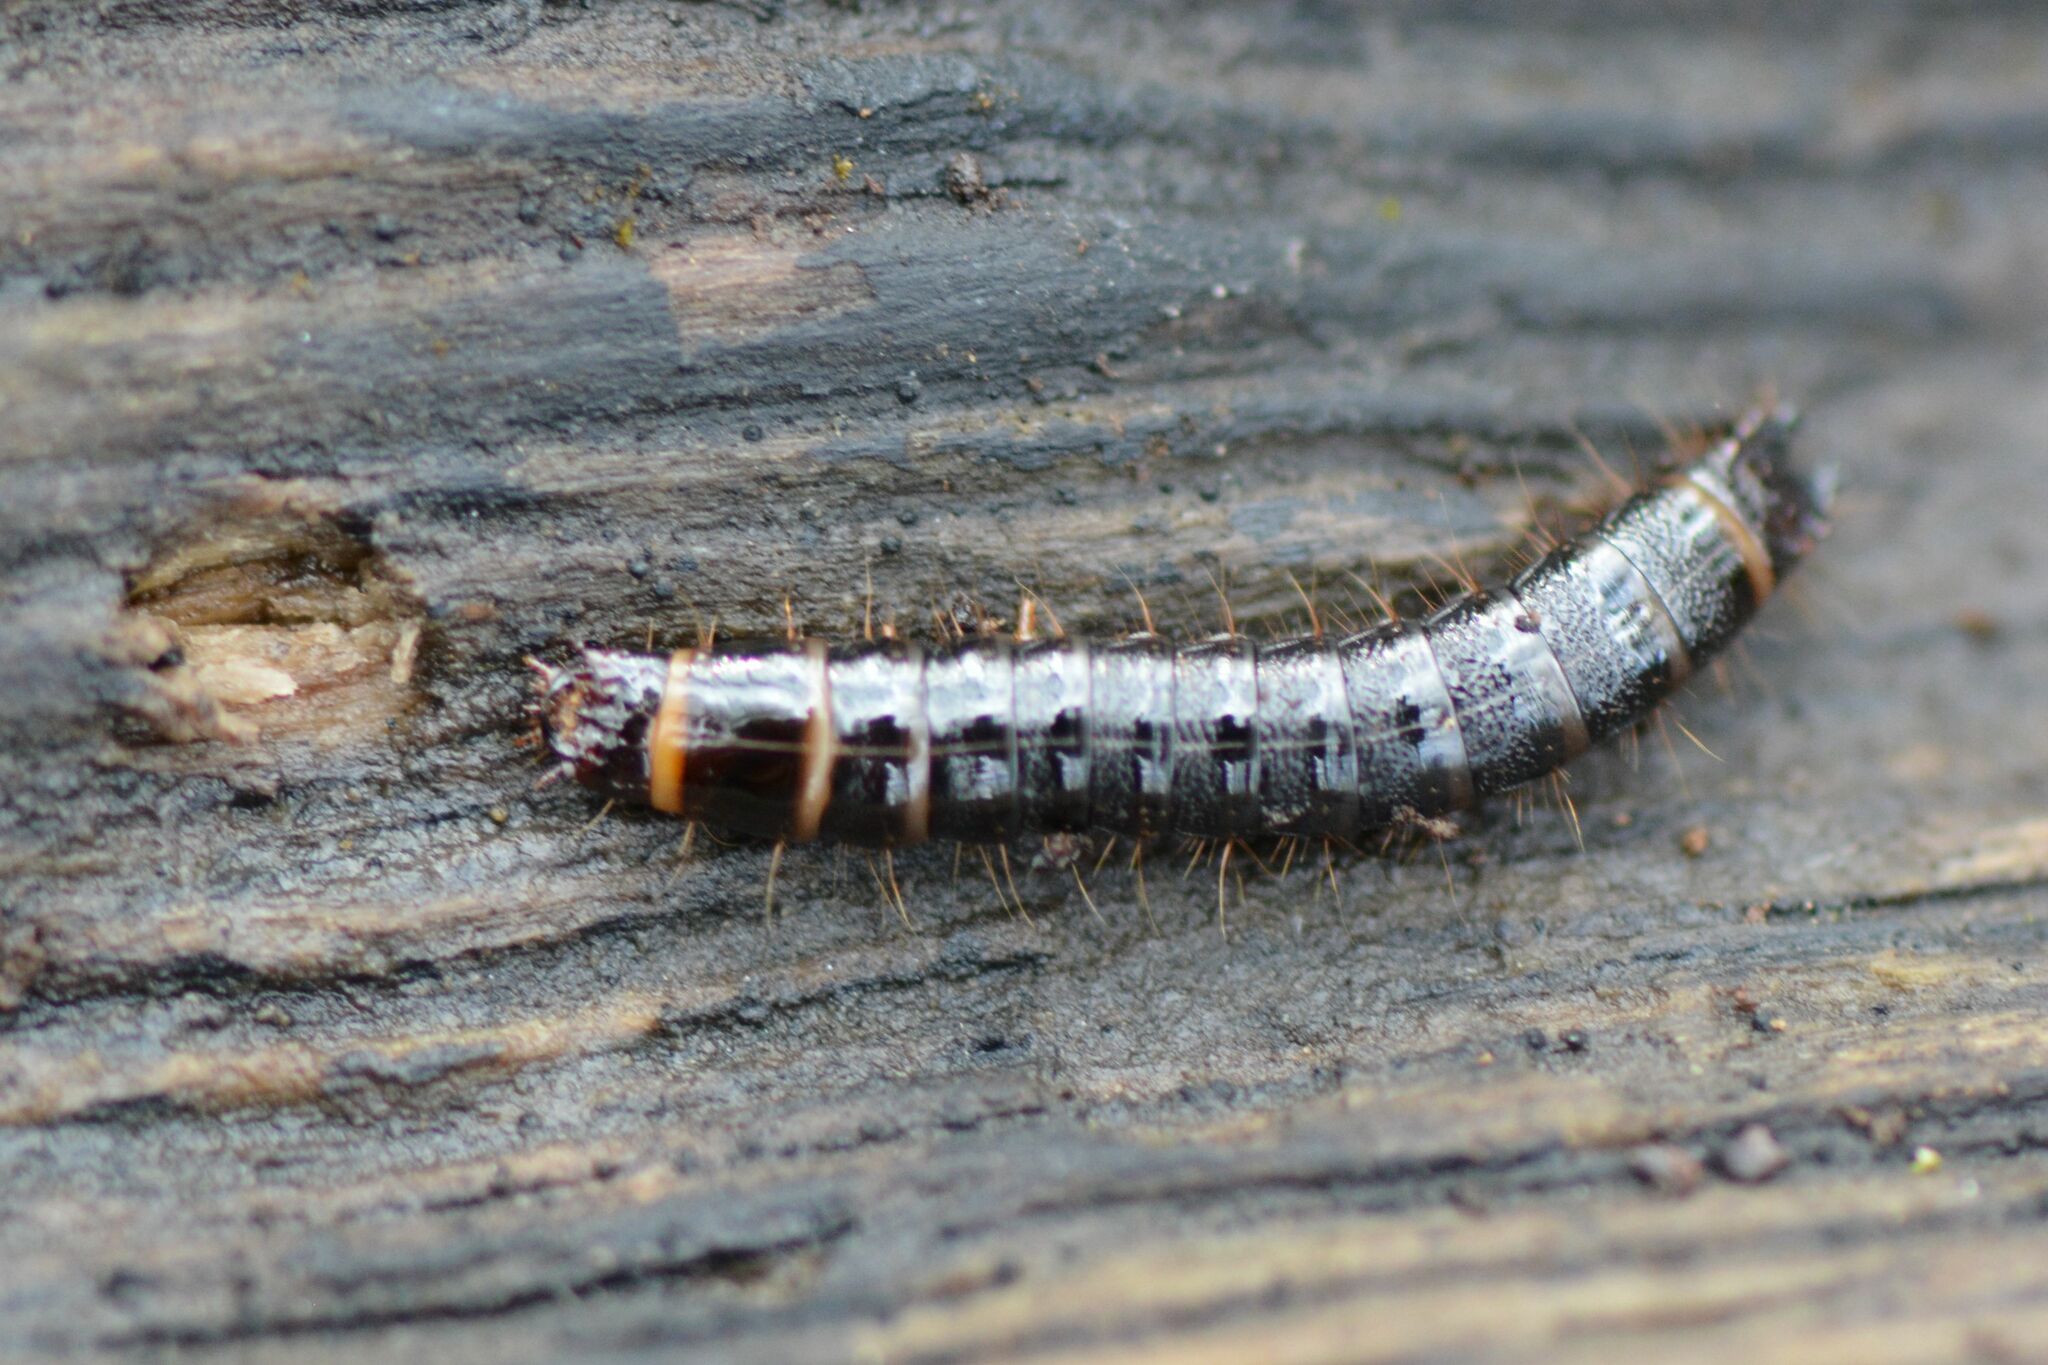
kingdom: Animalia
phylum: Arthropoda
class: Insecta
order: Coleoptera
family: Elateridae
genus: Stenagostus
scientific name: Stenagostus rhombeus
